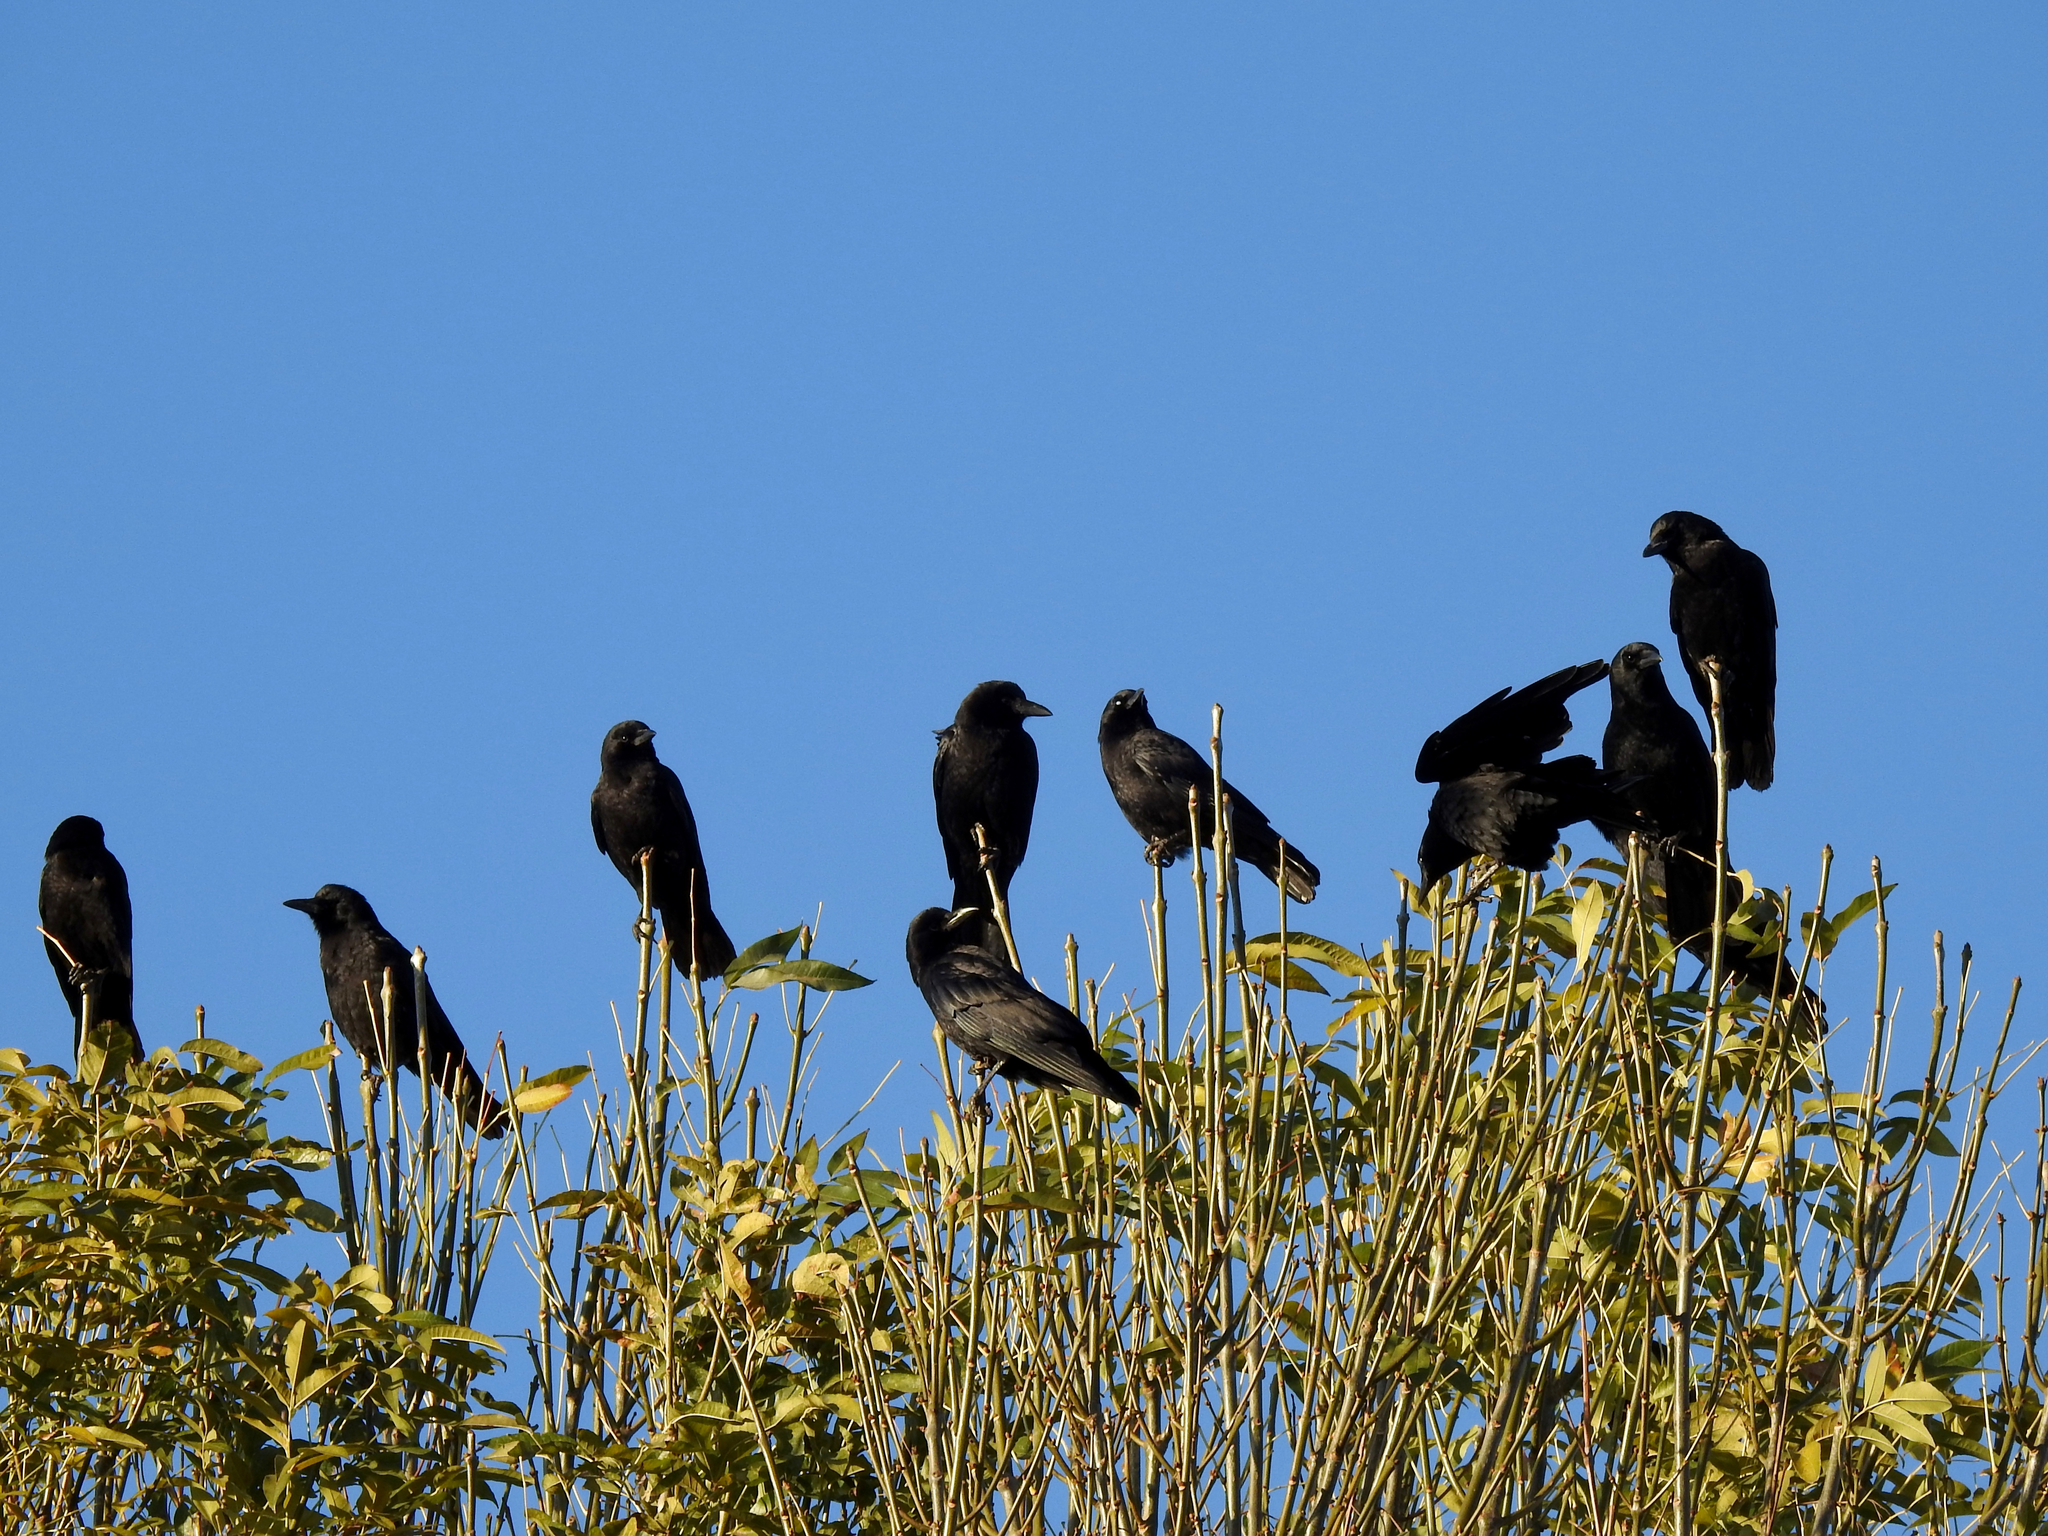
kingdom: Animalia
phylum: Chordata
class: Aves
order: Passeriformes
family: Corvidae
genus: Corvus
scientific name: Corvus brachyrhynchos
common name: American crow
